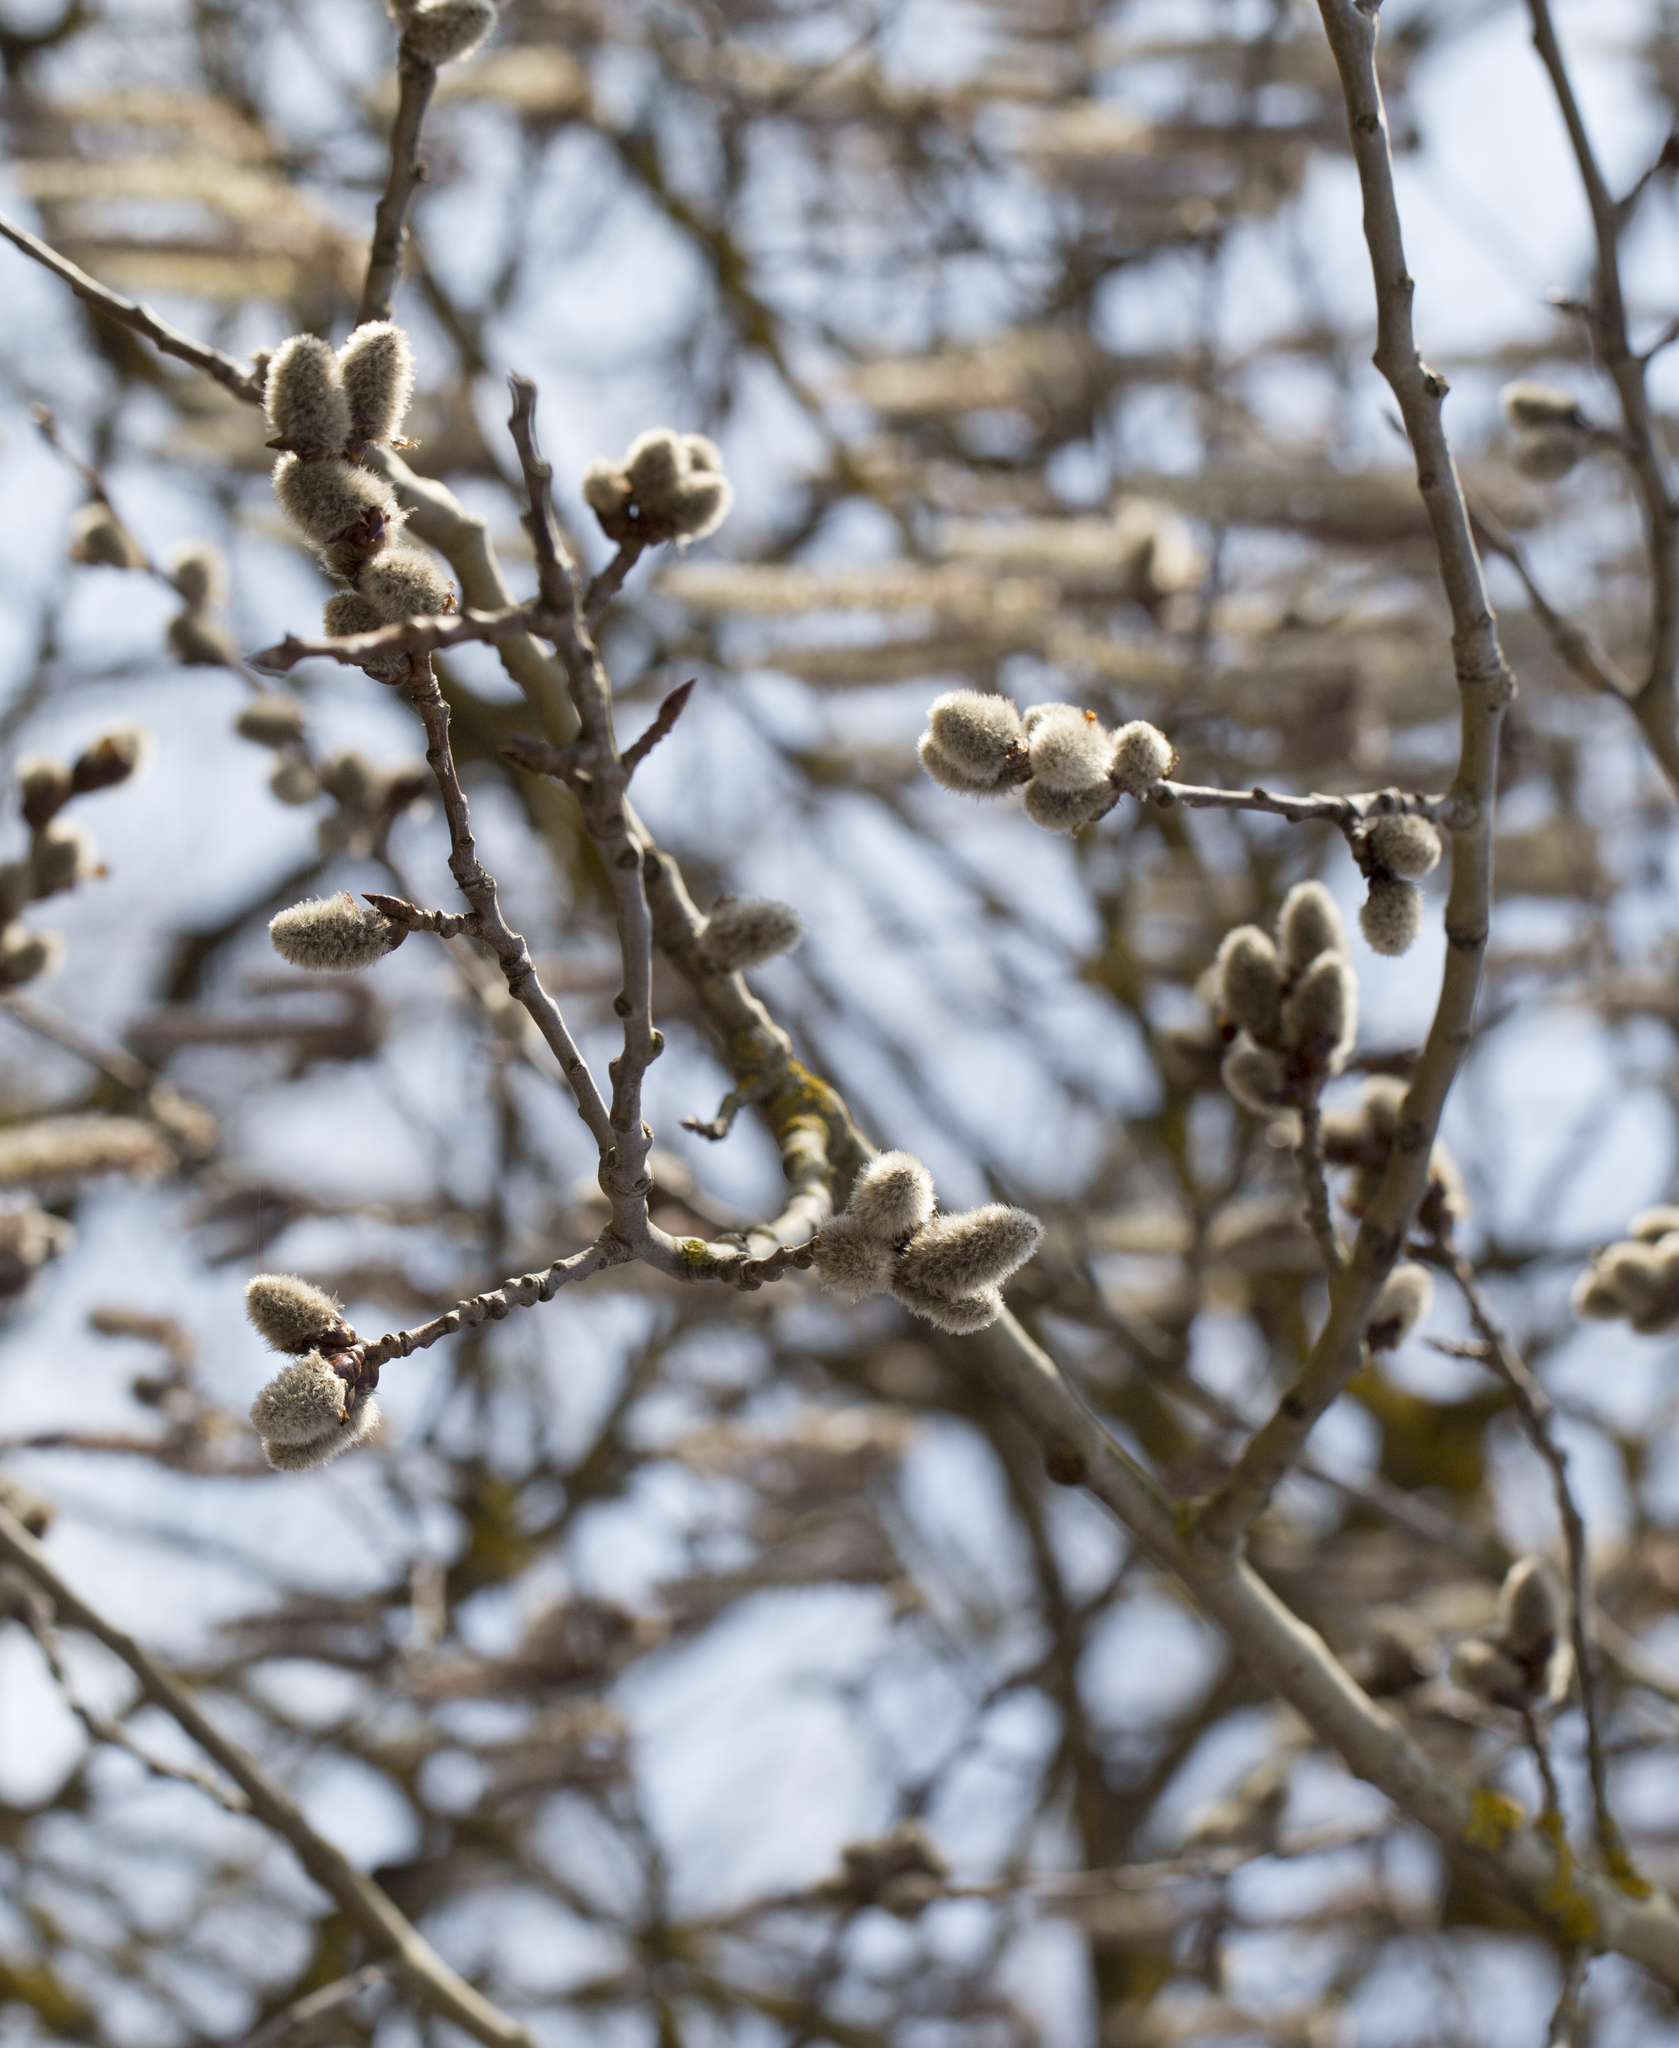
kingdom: Plantae
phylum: Tracheophyta
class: Magnoliopsida
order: Malpighiales
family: Salicaceae
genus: Populus
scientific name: Populus tremula
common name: European aspen
